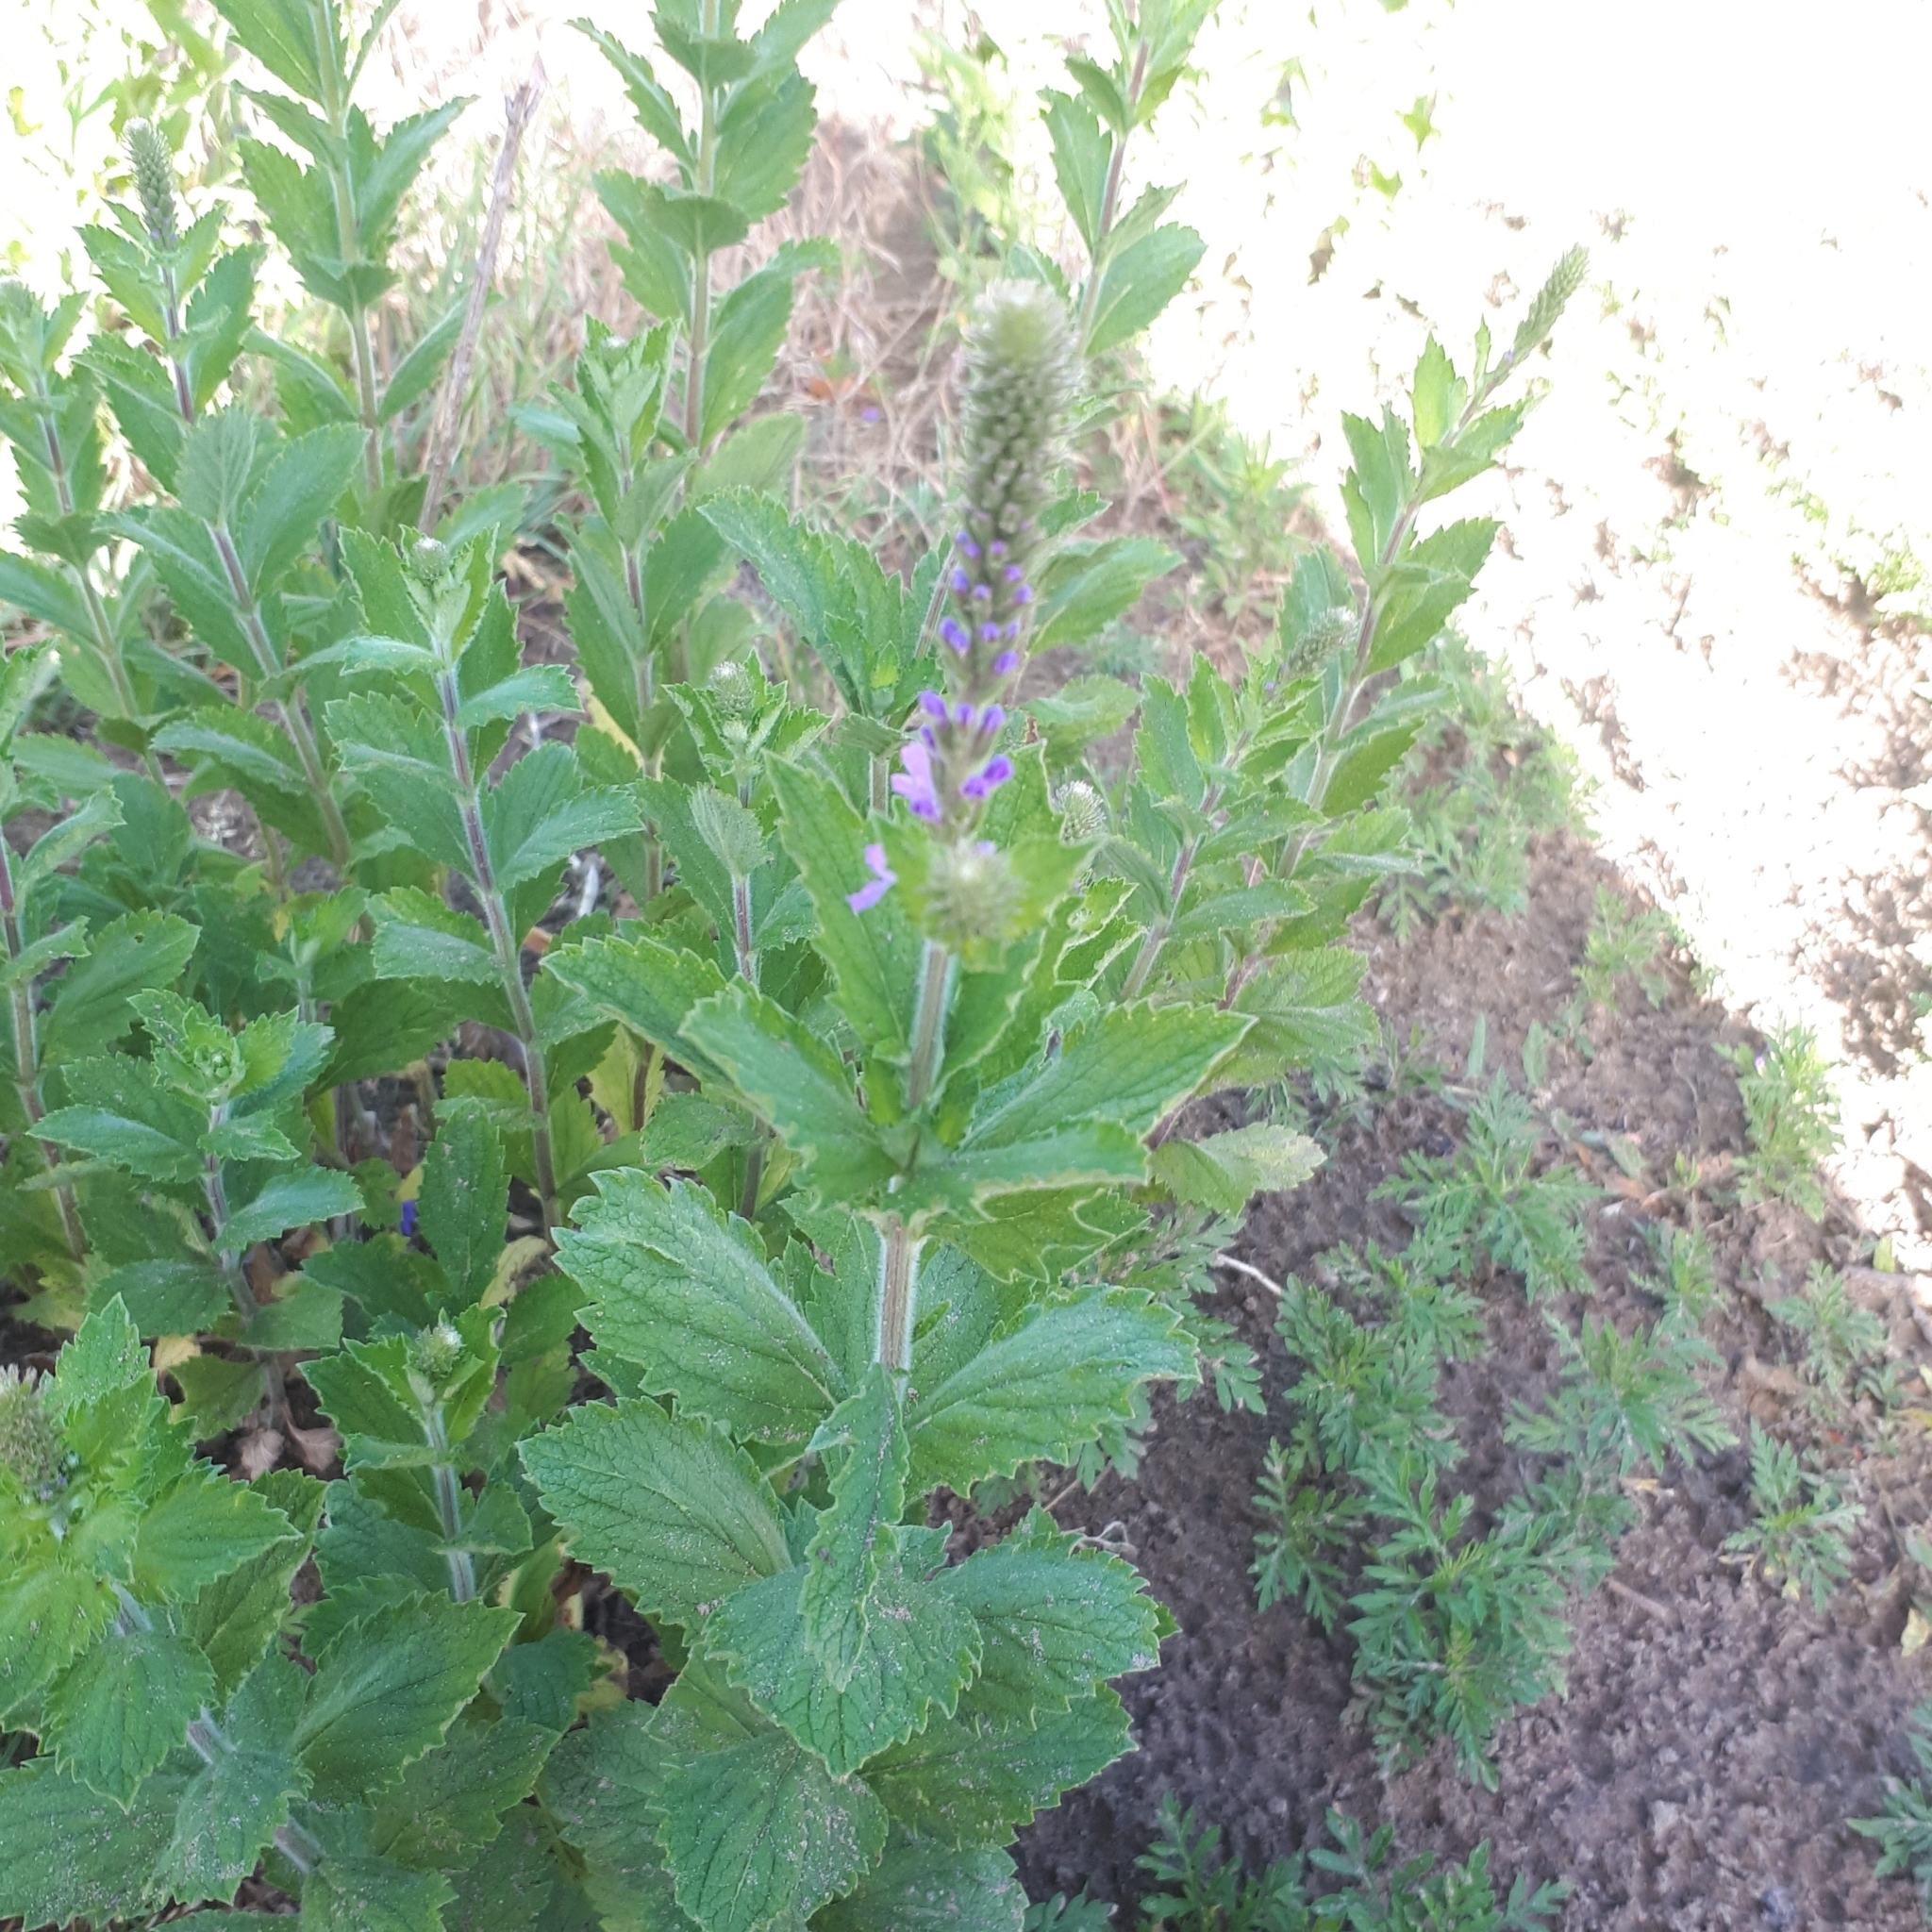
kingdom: Plantae
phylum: Tracheophyta
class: Magnoliopsida
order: Lamiales
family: Verbenaceae
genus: Verbena
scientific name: Verbena stricta
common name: Hoary vervain
